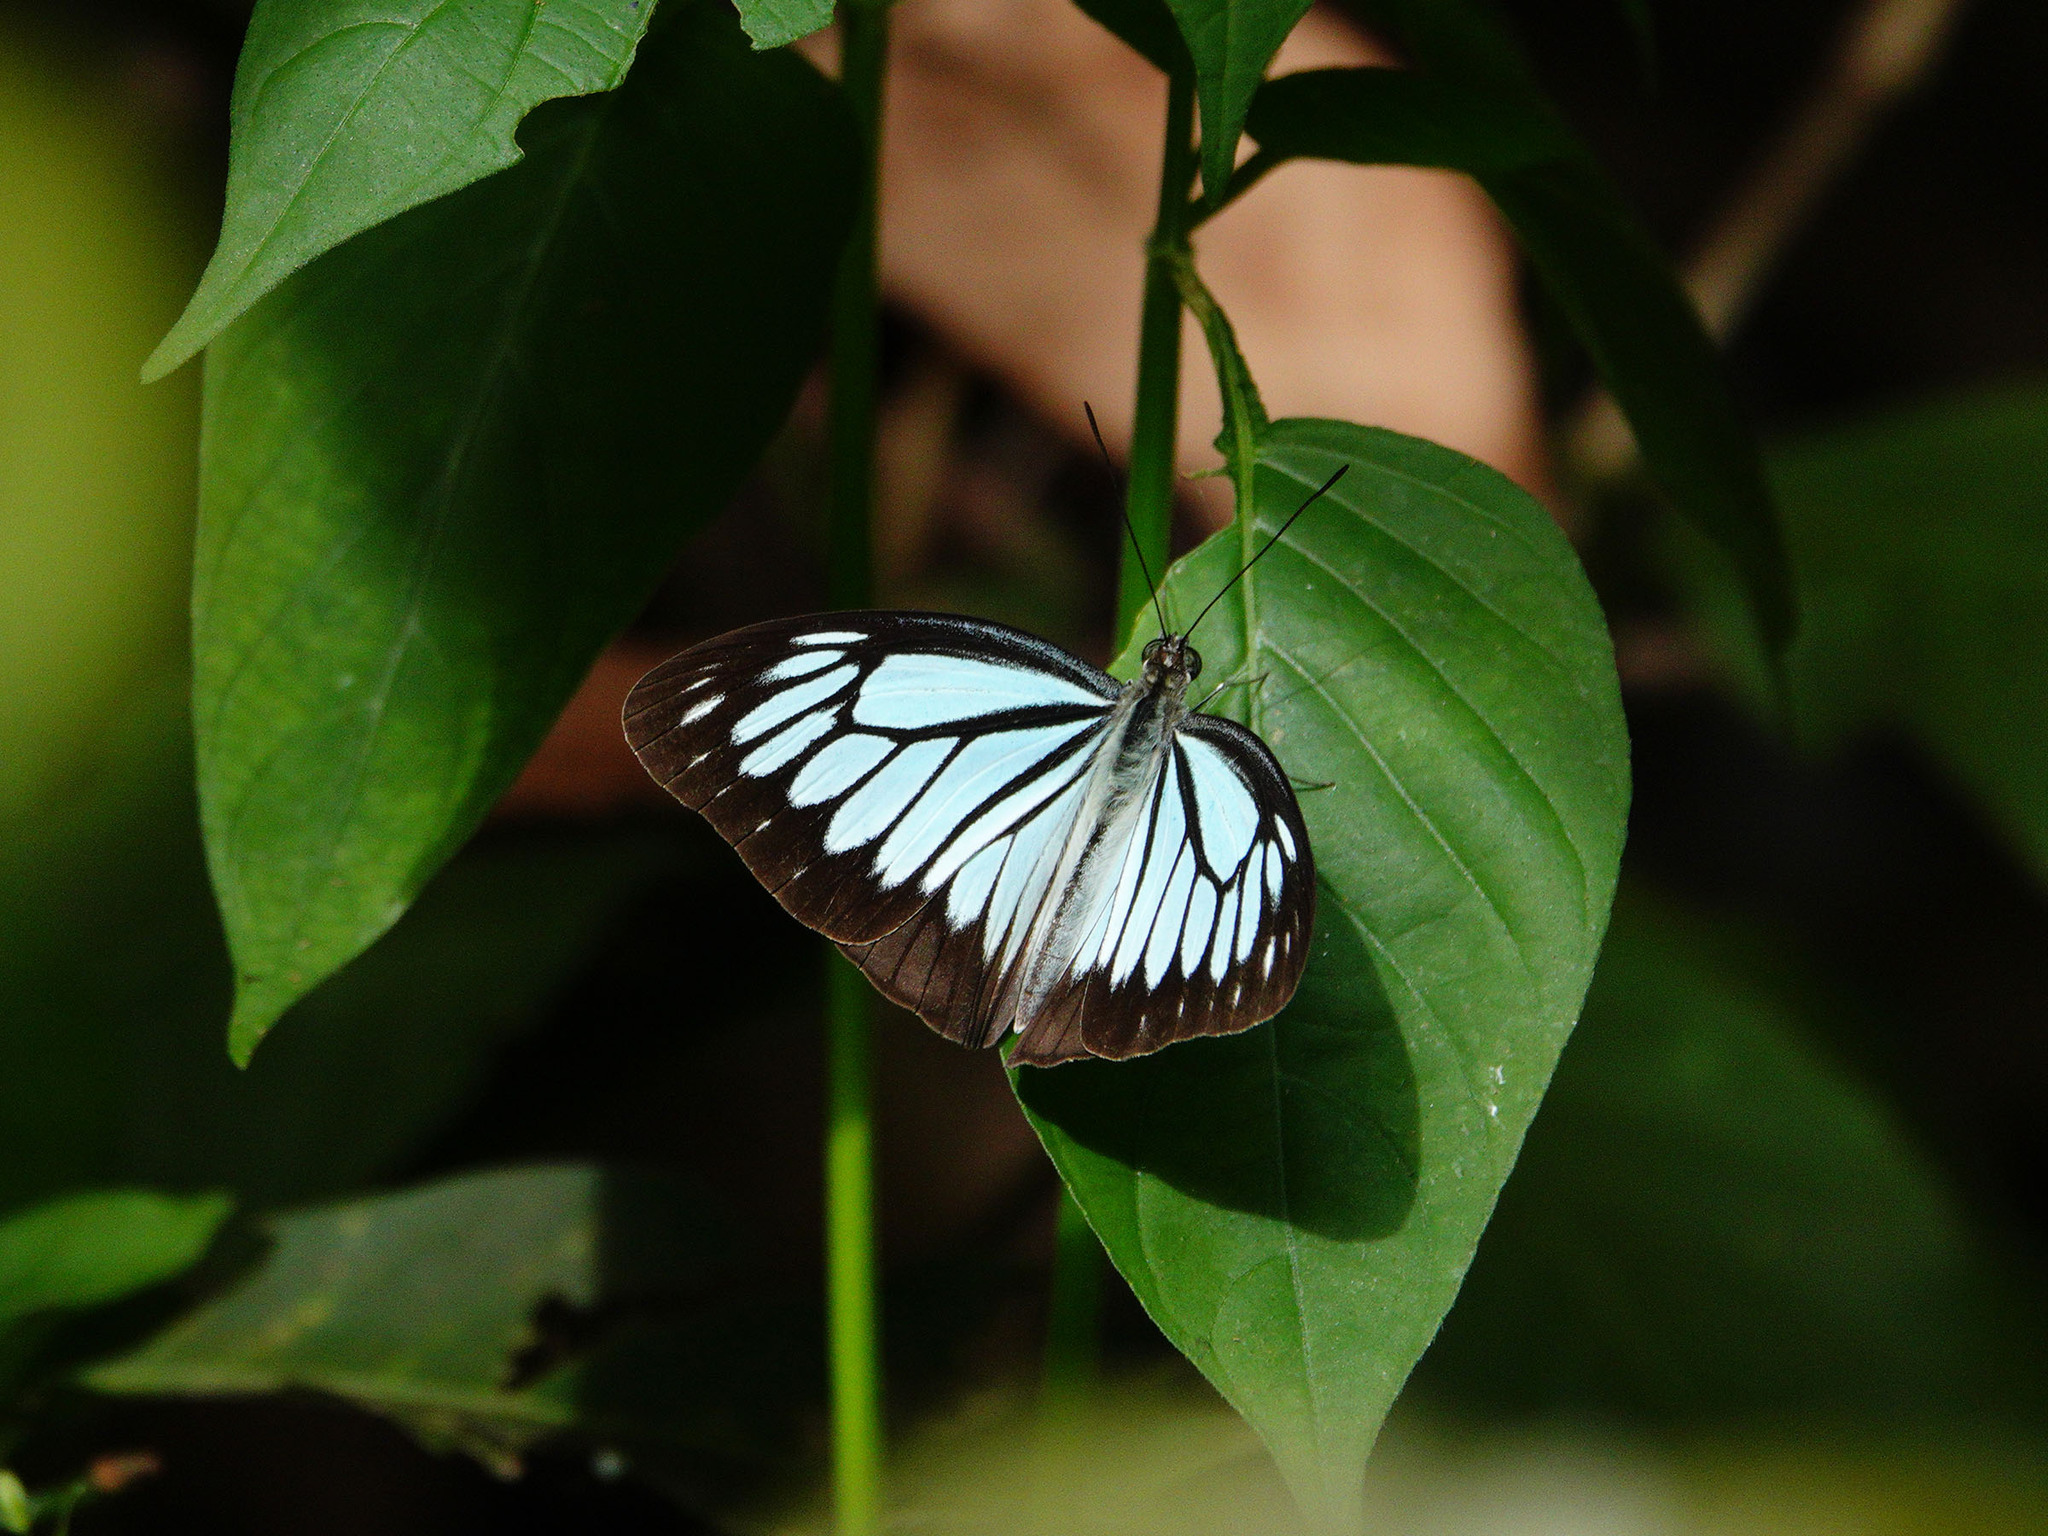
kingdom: Animalia
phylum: Arthropoda
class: Insecta
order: Lepidoptera
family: Pieridae
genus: Pareronia
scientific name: Pareronia boebera
